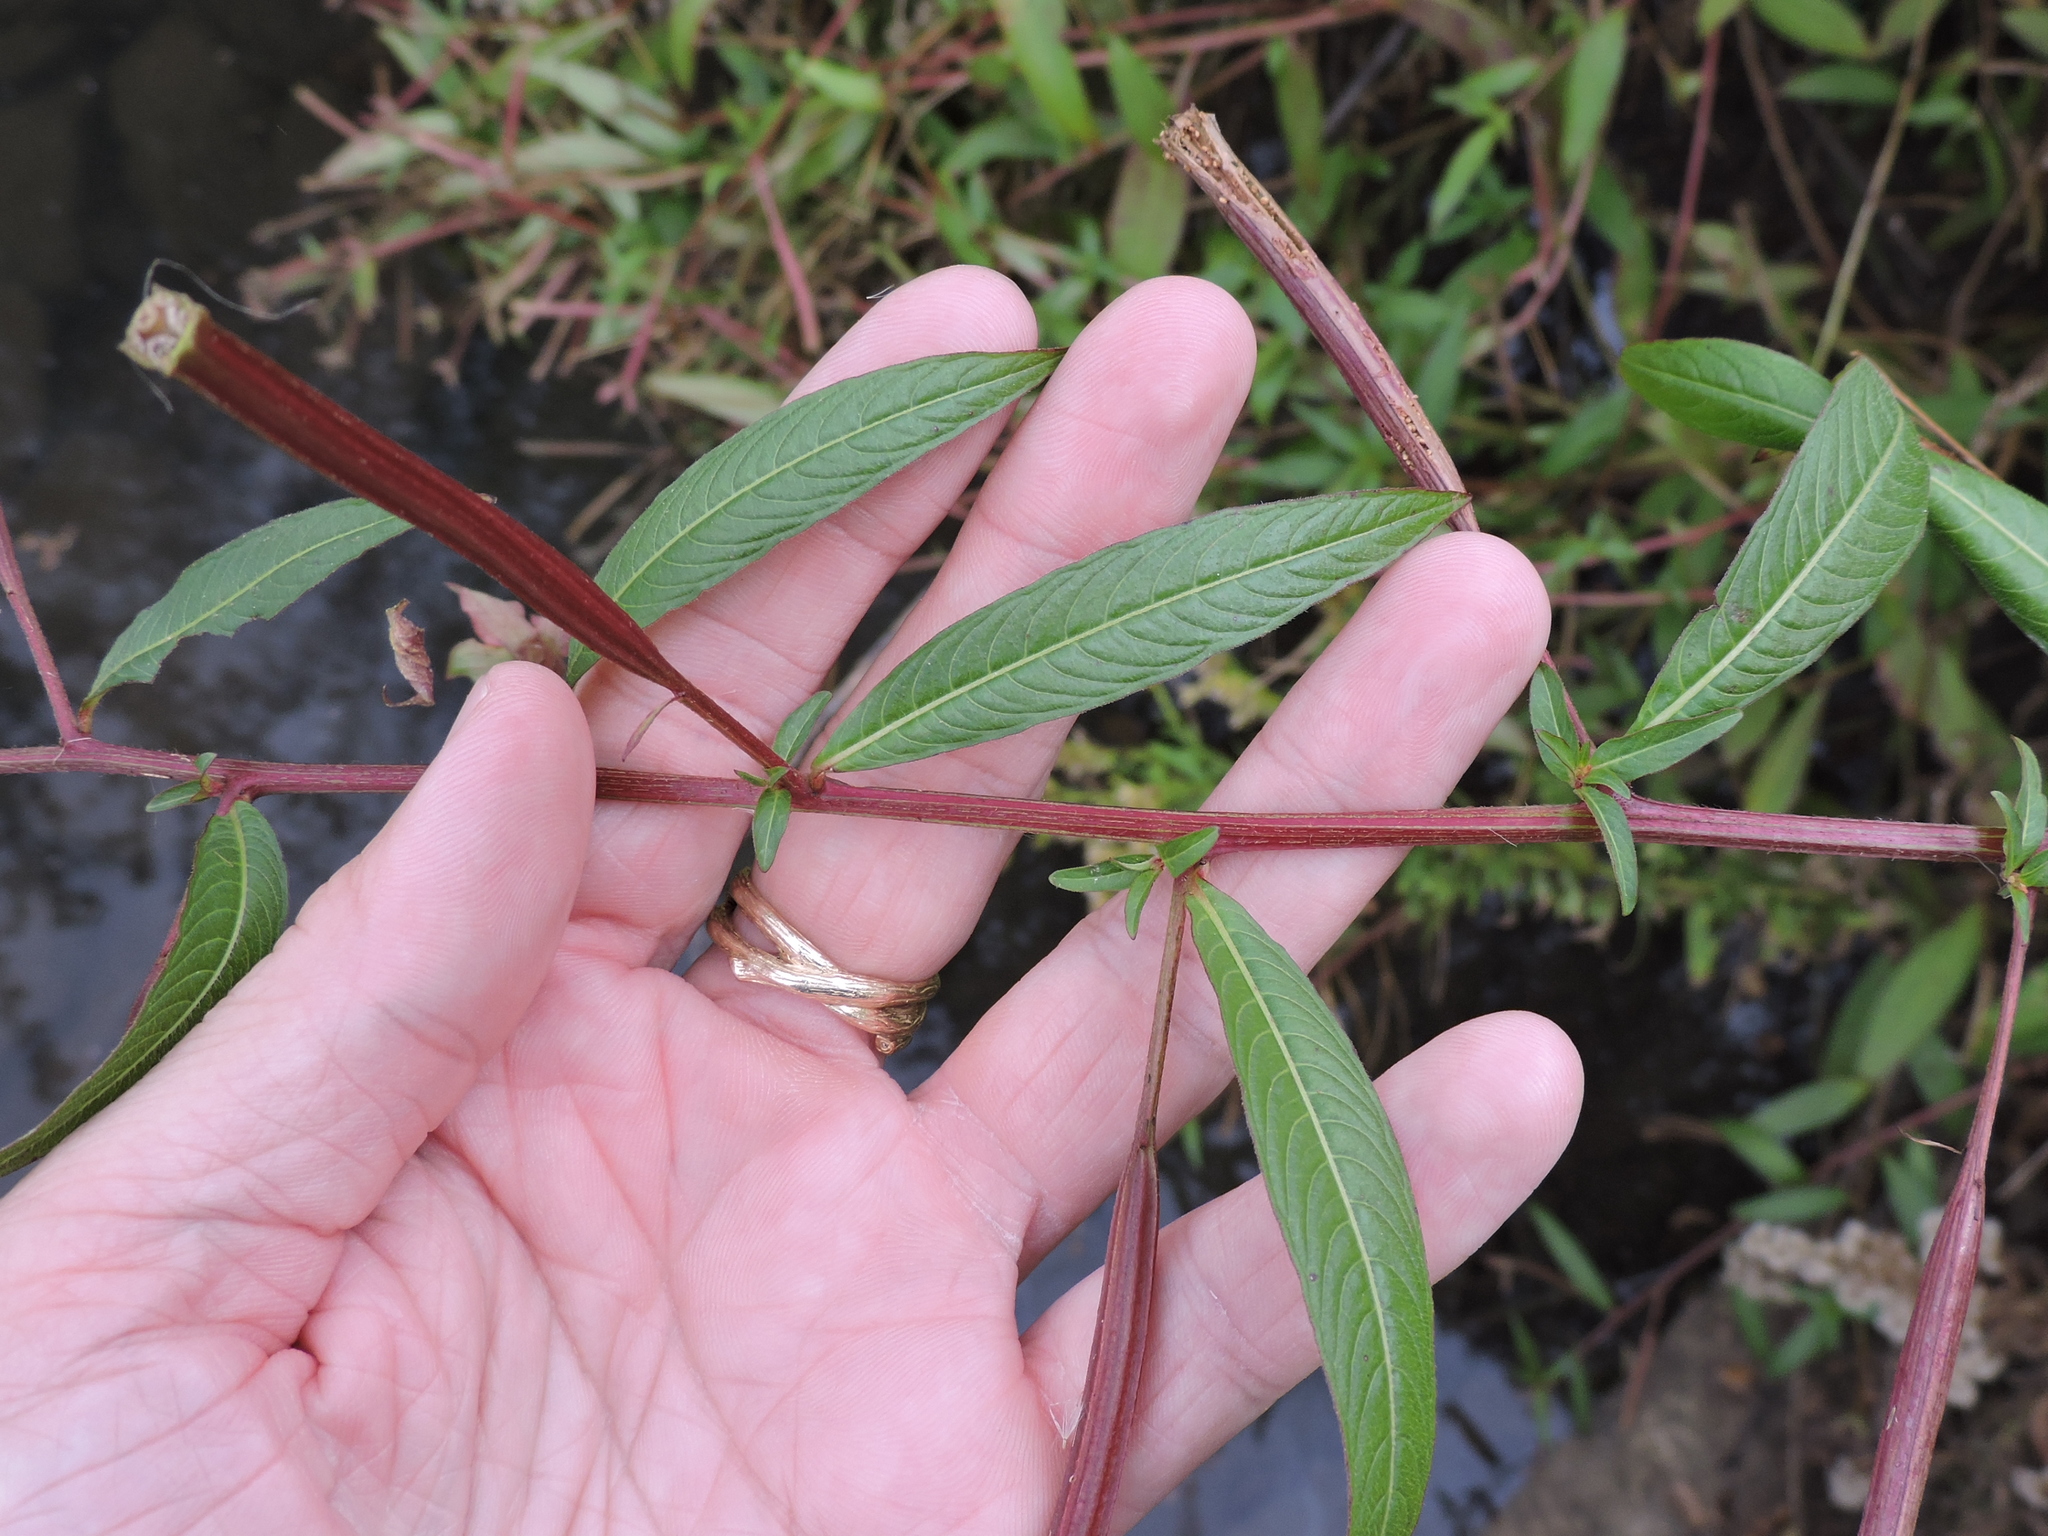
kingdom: Plantae
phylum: Tracheophyta
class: Magnoliopsida
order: Myrtales
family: Onagraceae
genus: Ludwigia
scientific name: Ludwigia octovalvis
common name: Water-primrose
